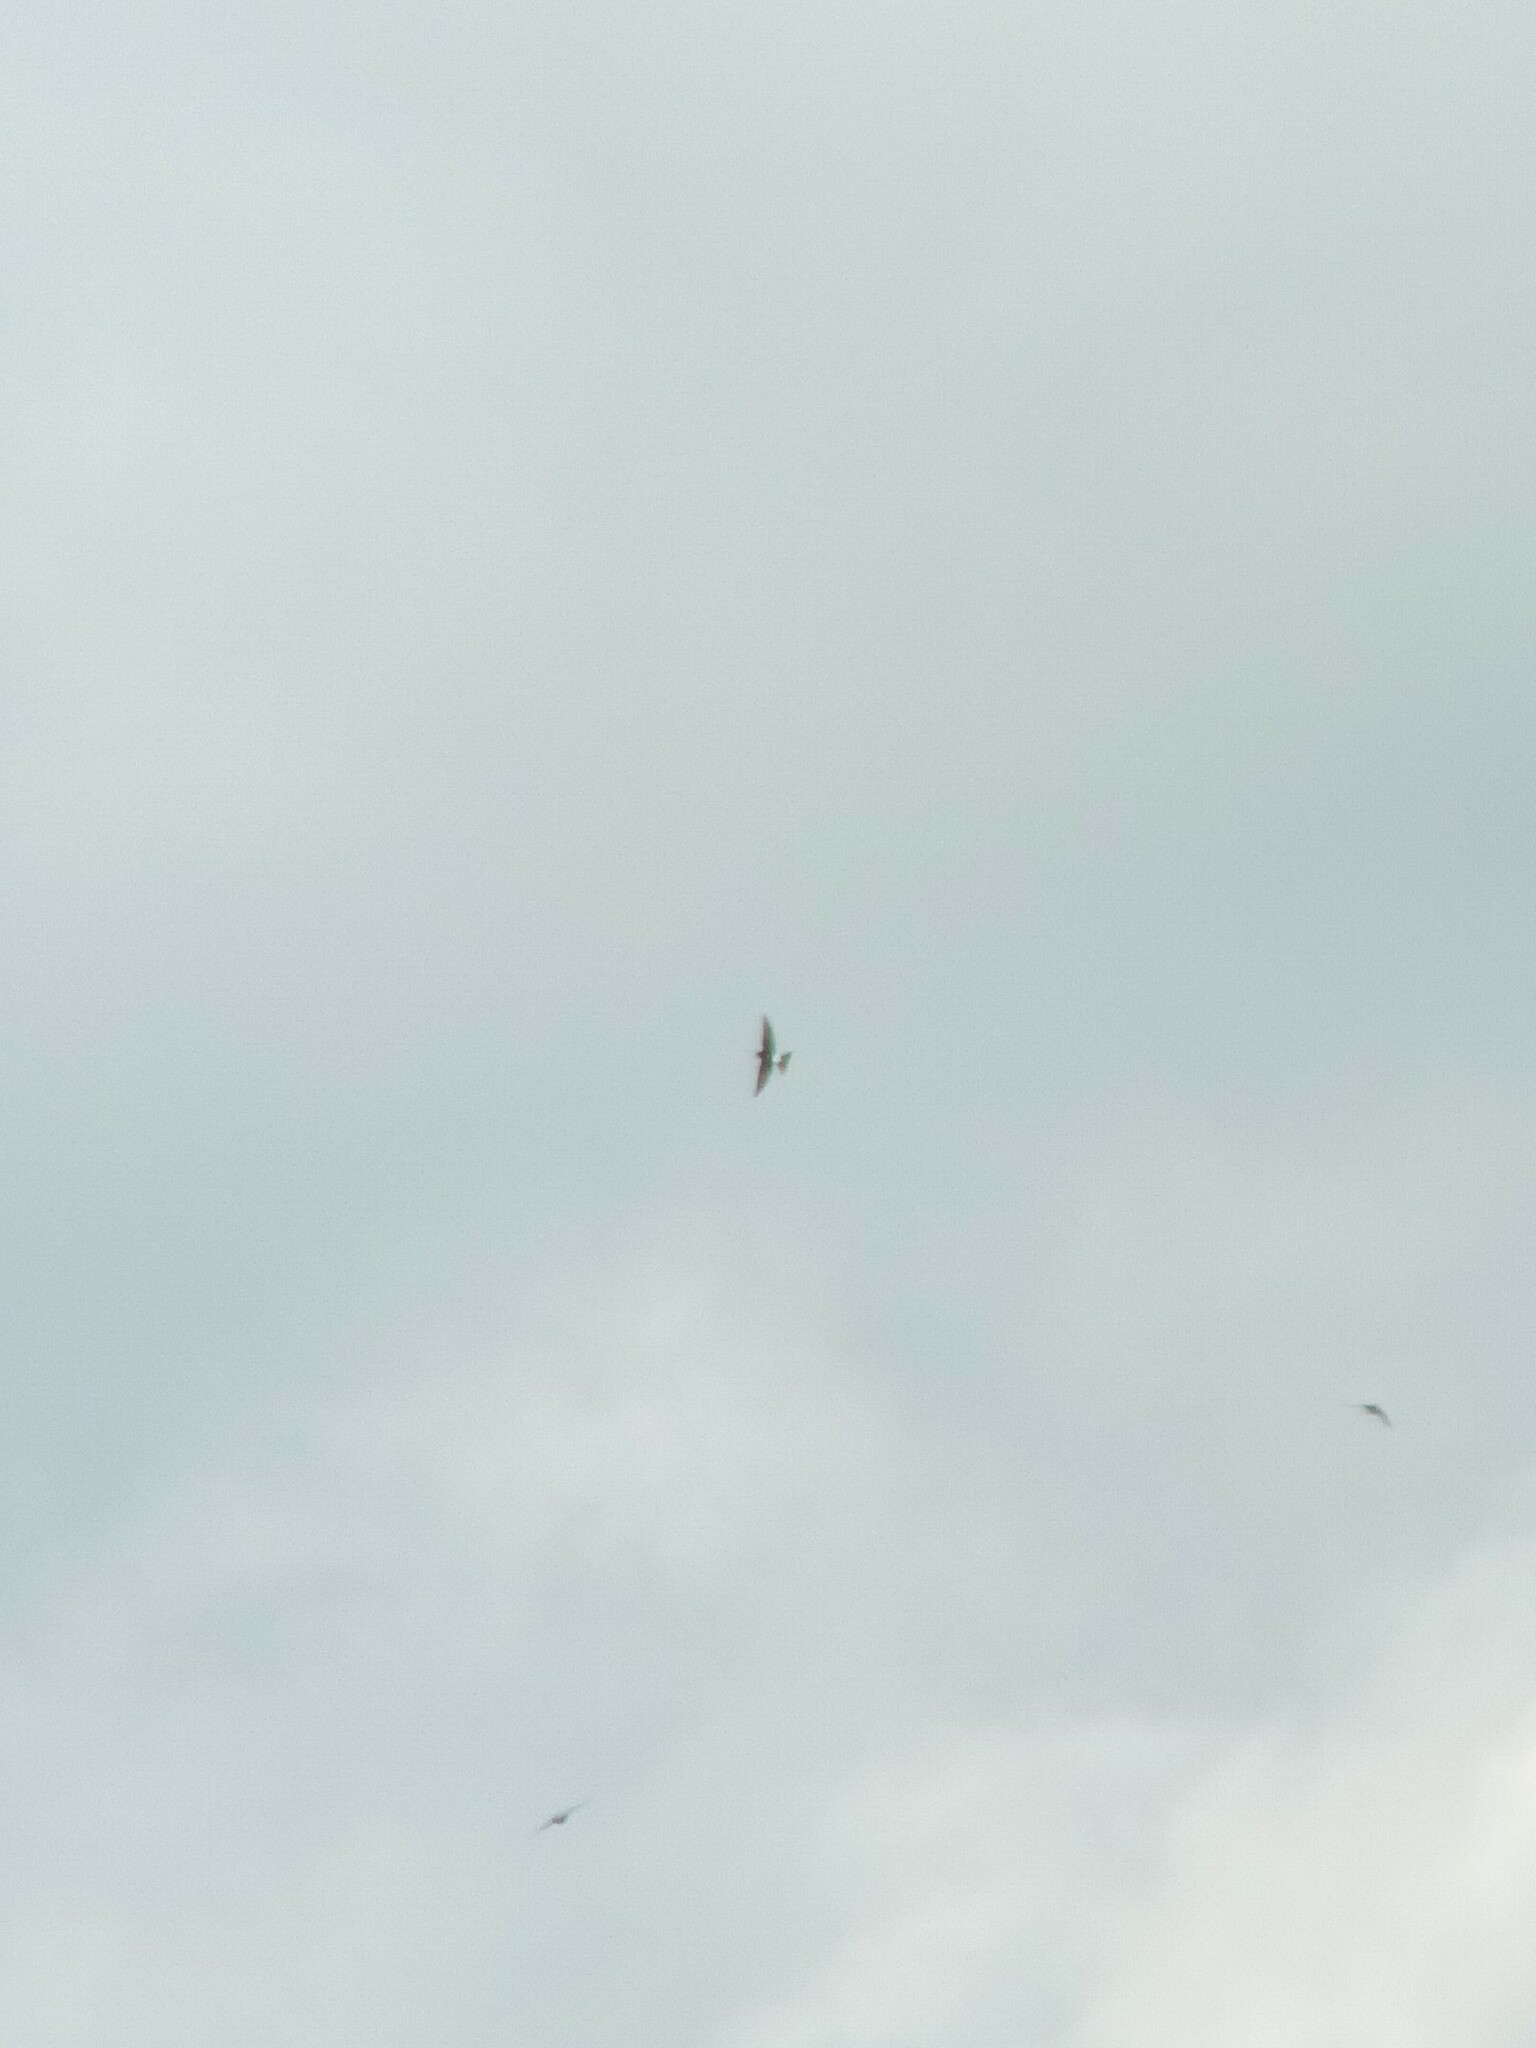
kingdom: Animalia
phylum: Chordata
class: Aves
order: Passeriformes
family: Hirundinidae
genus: Delichon
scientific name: Delichon urbicum
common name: Common house martin
